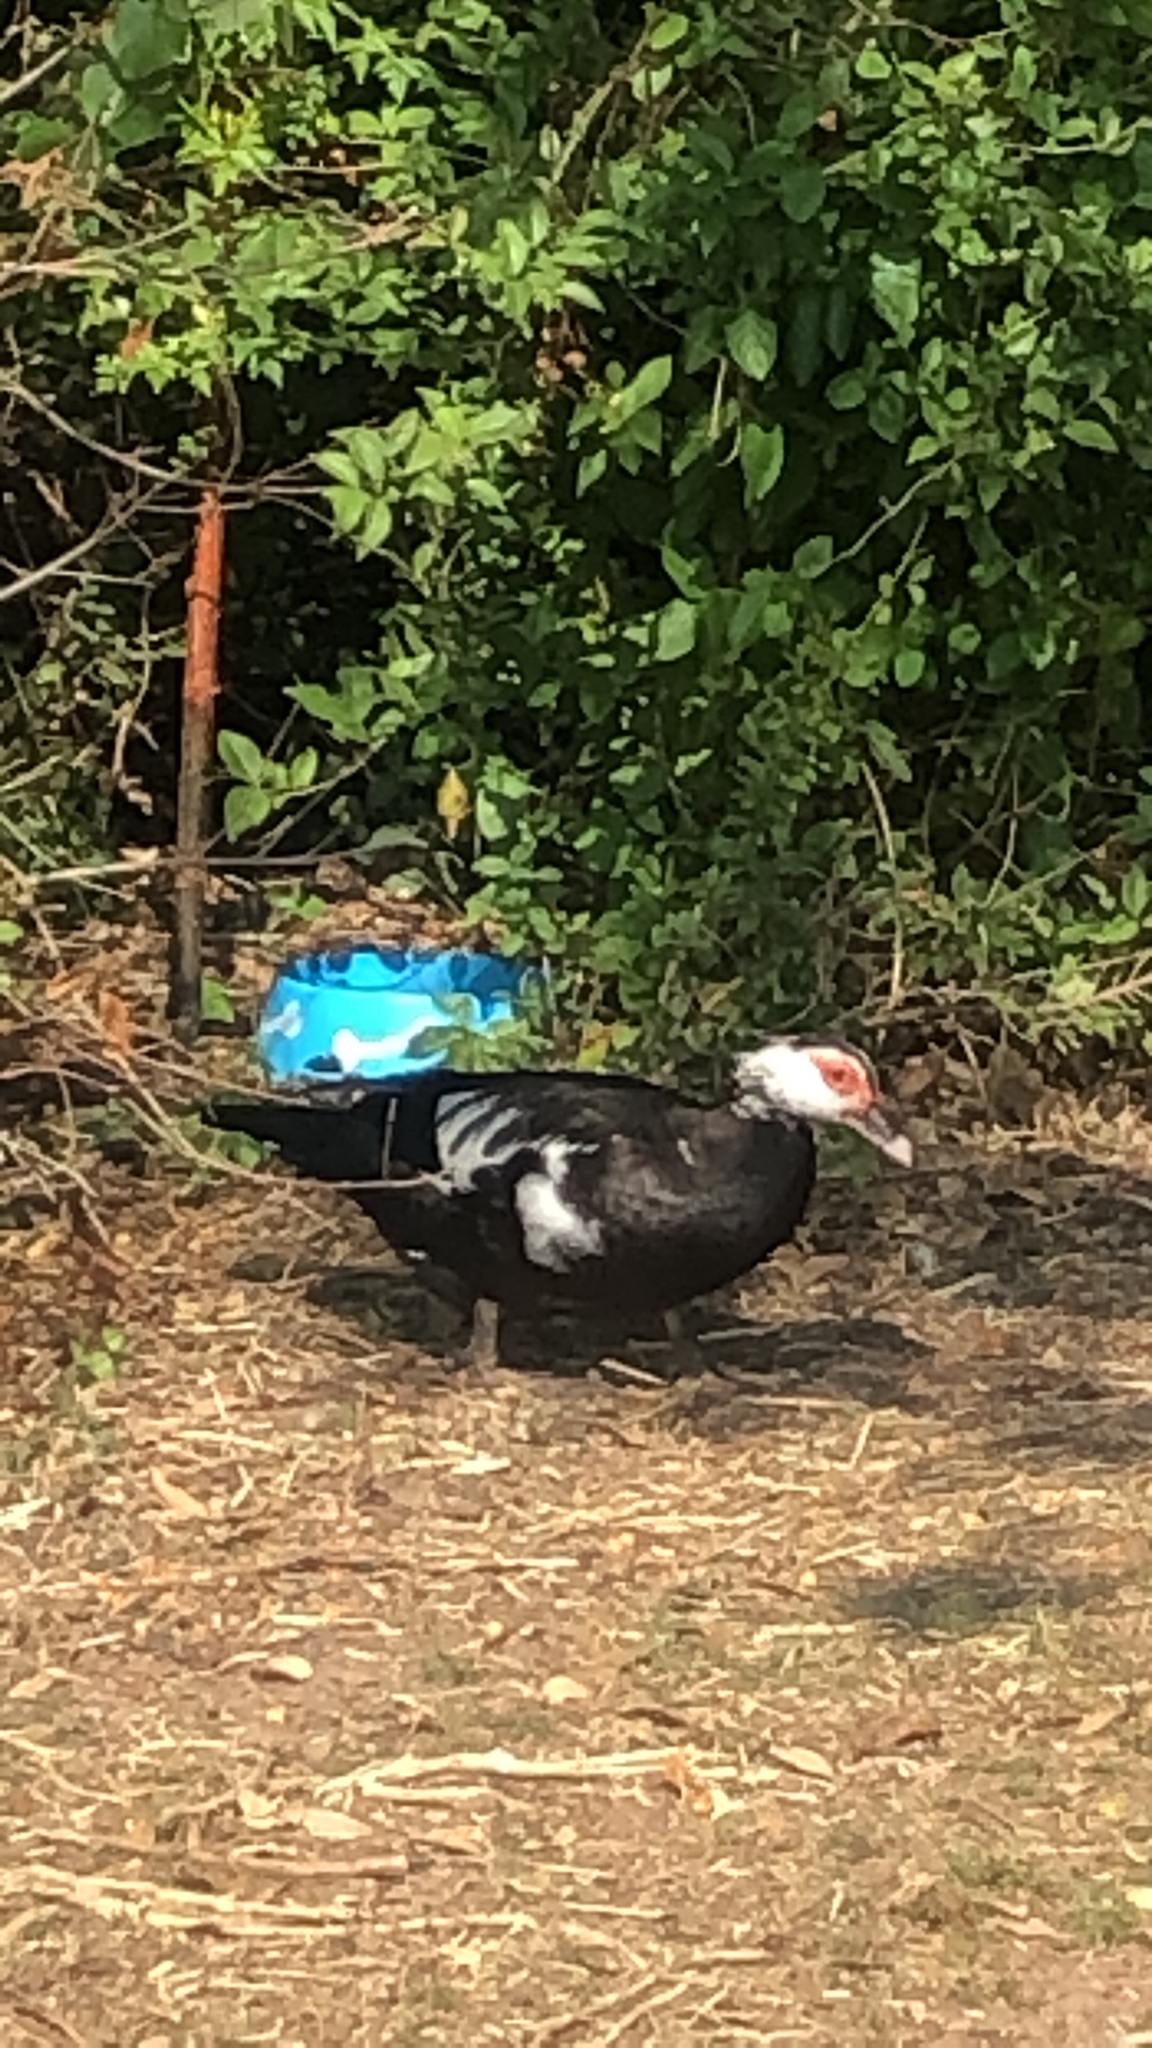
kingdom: Animalia
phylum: Chordata
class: Aves
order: Anseriformes
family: Anatidae
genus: Cairina
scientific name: Cairina moschata
